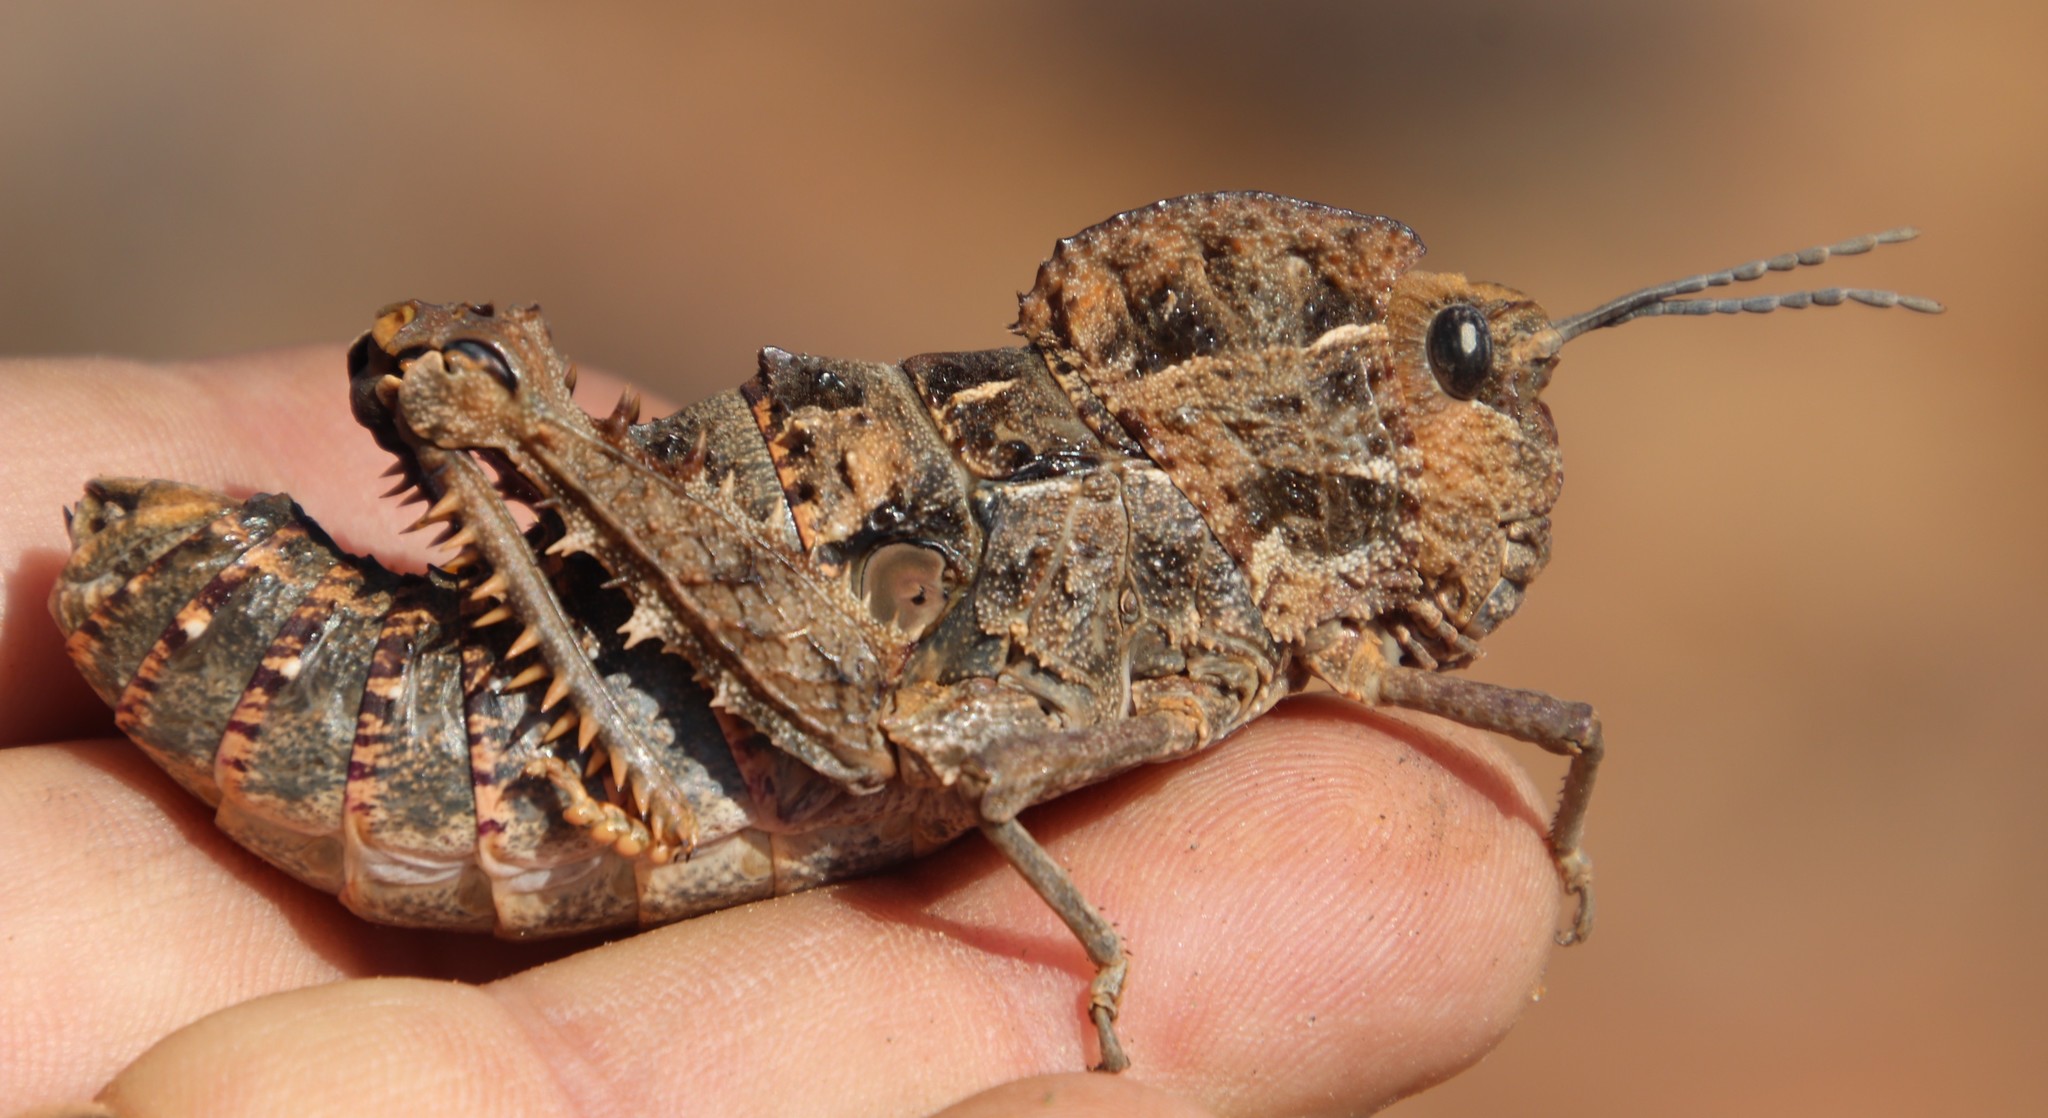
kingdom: Animalia
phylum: Arthropoda
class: Insecta
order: Orthoptera
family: Pamphagidae
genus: Porthetis
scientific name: Porthetis carinata
